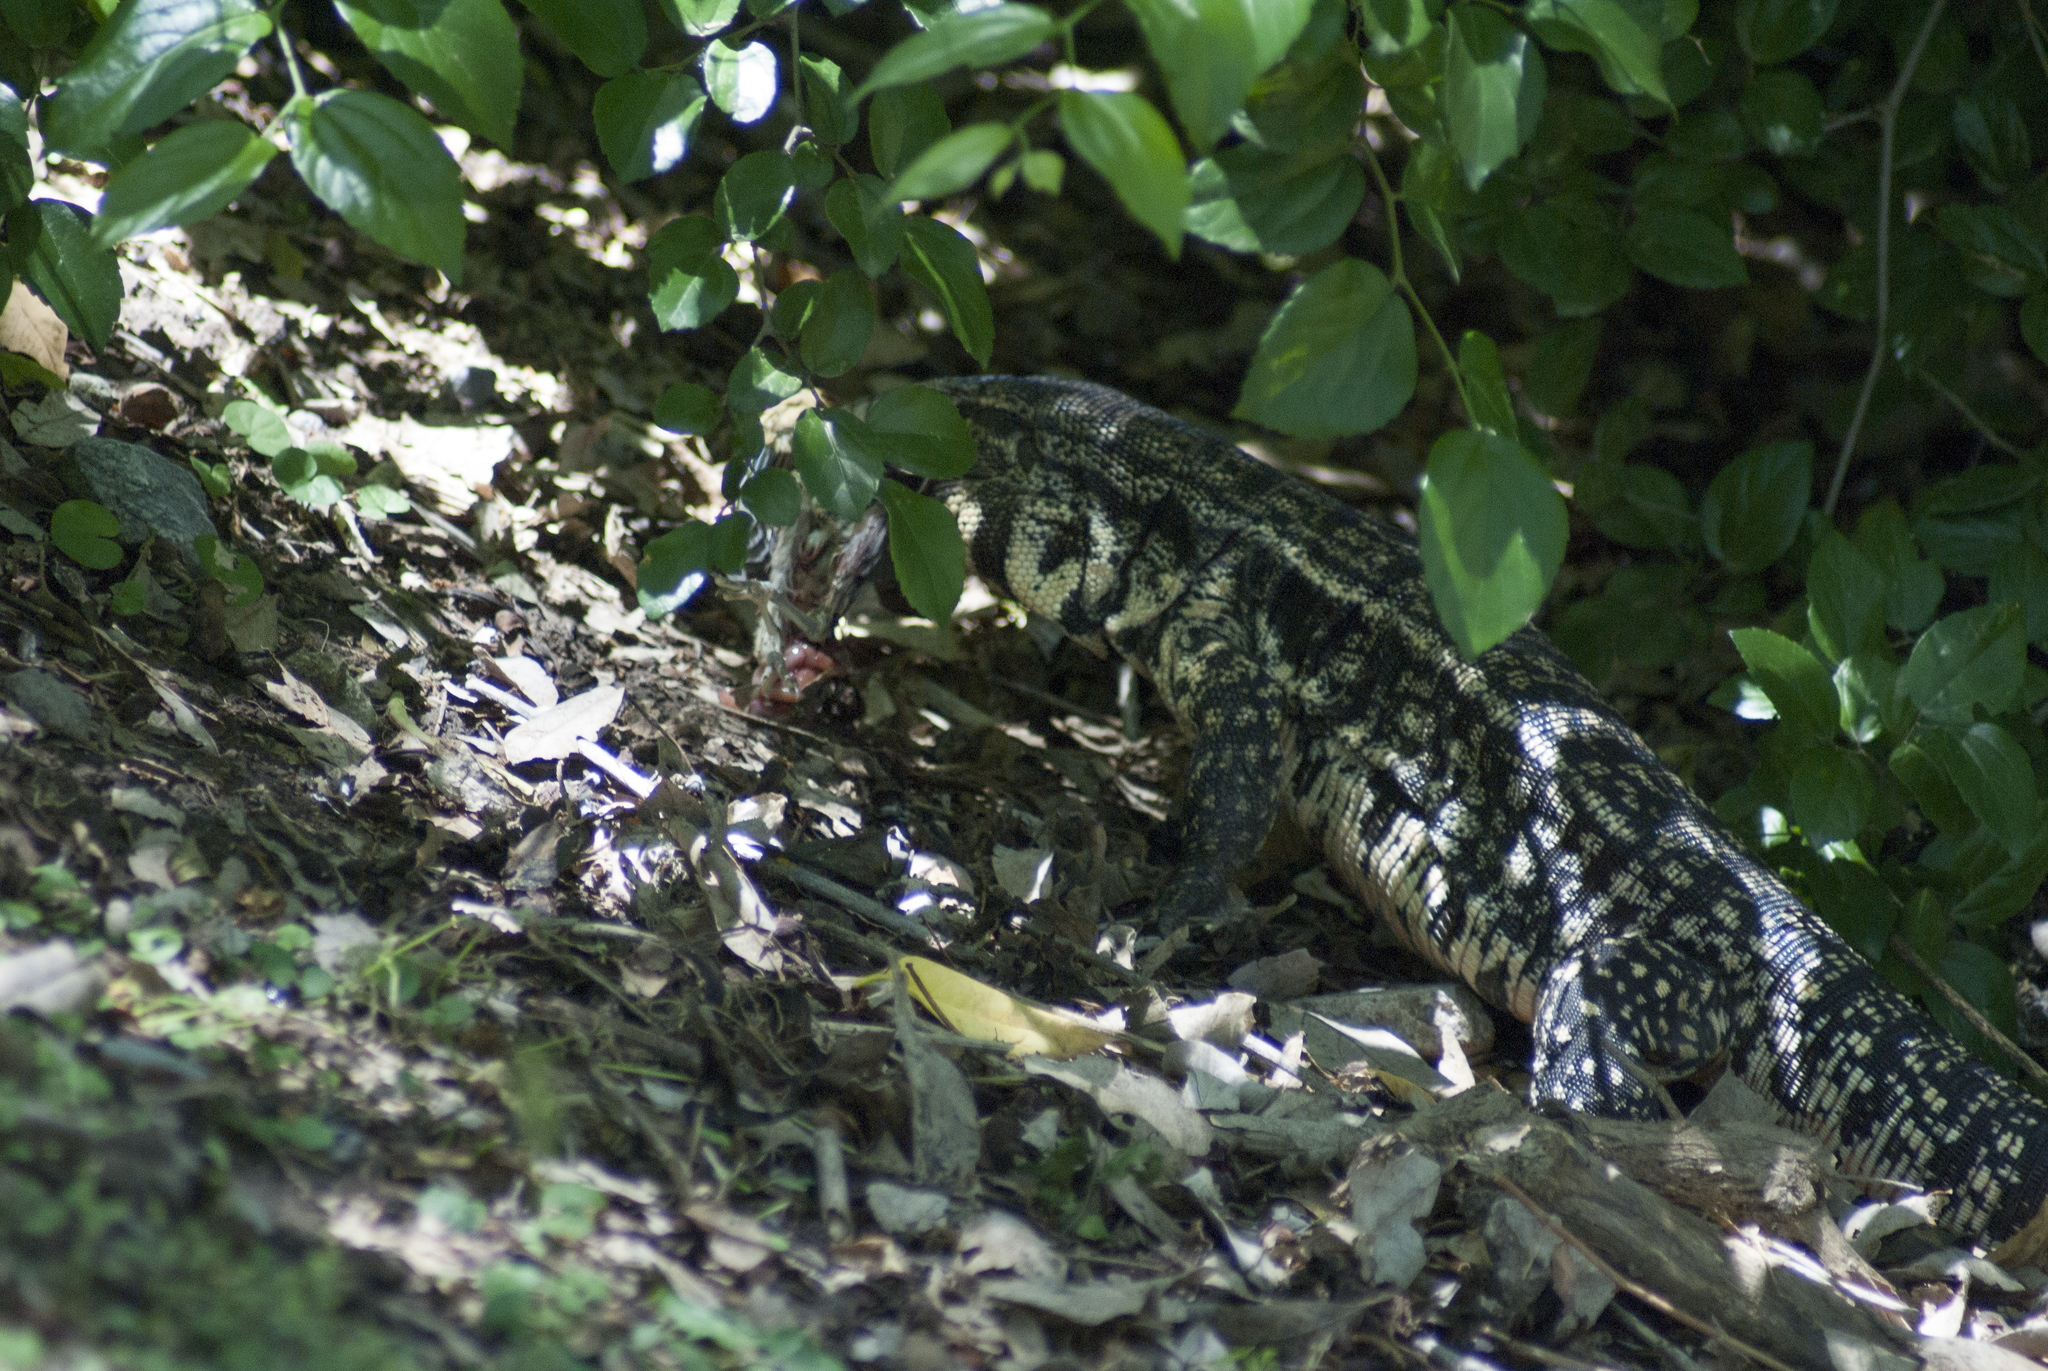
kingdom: Animalia
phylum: Chordata
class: Squamata
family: Teiidae
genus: Salvator
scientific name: Salvator merianae
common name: Argentine black and white tegu
